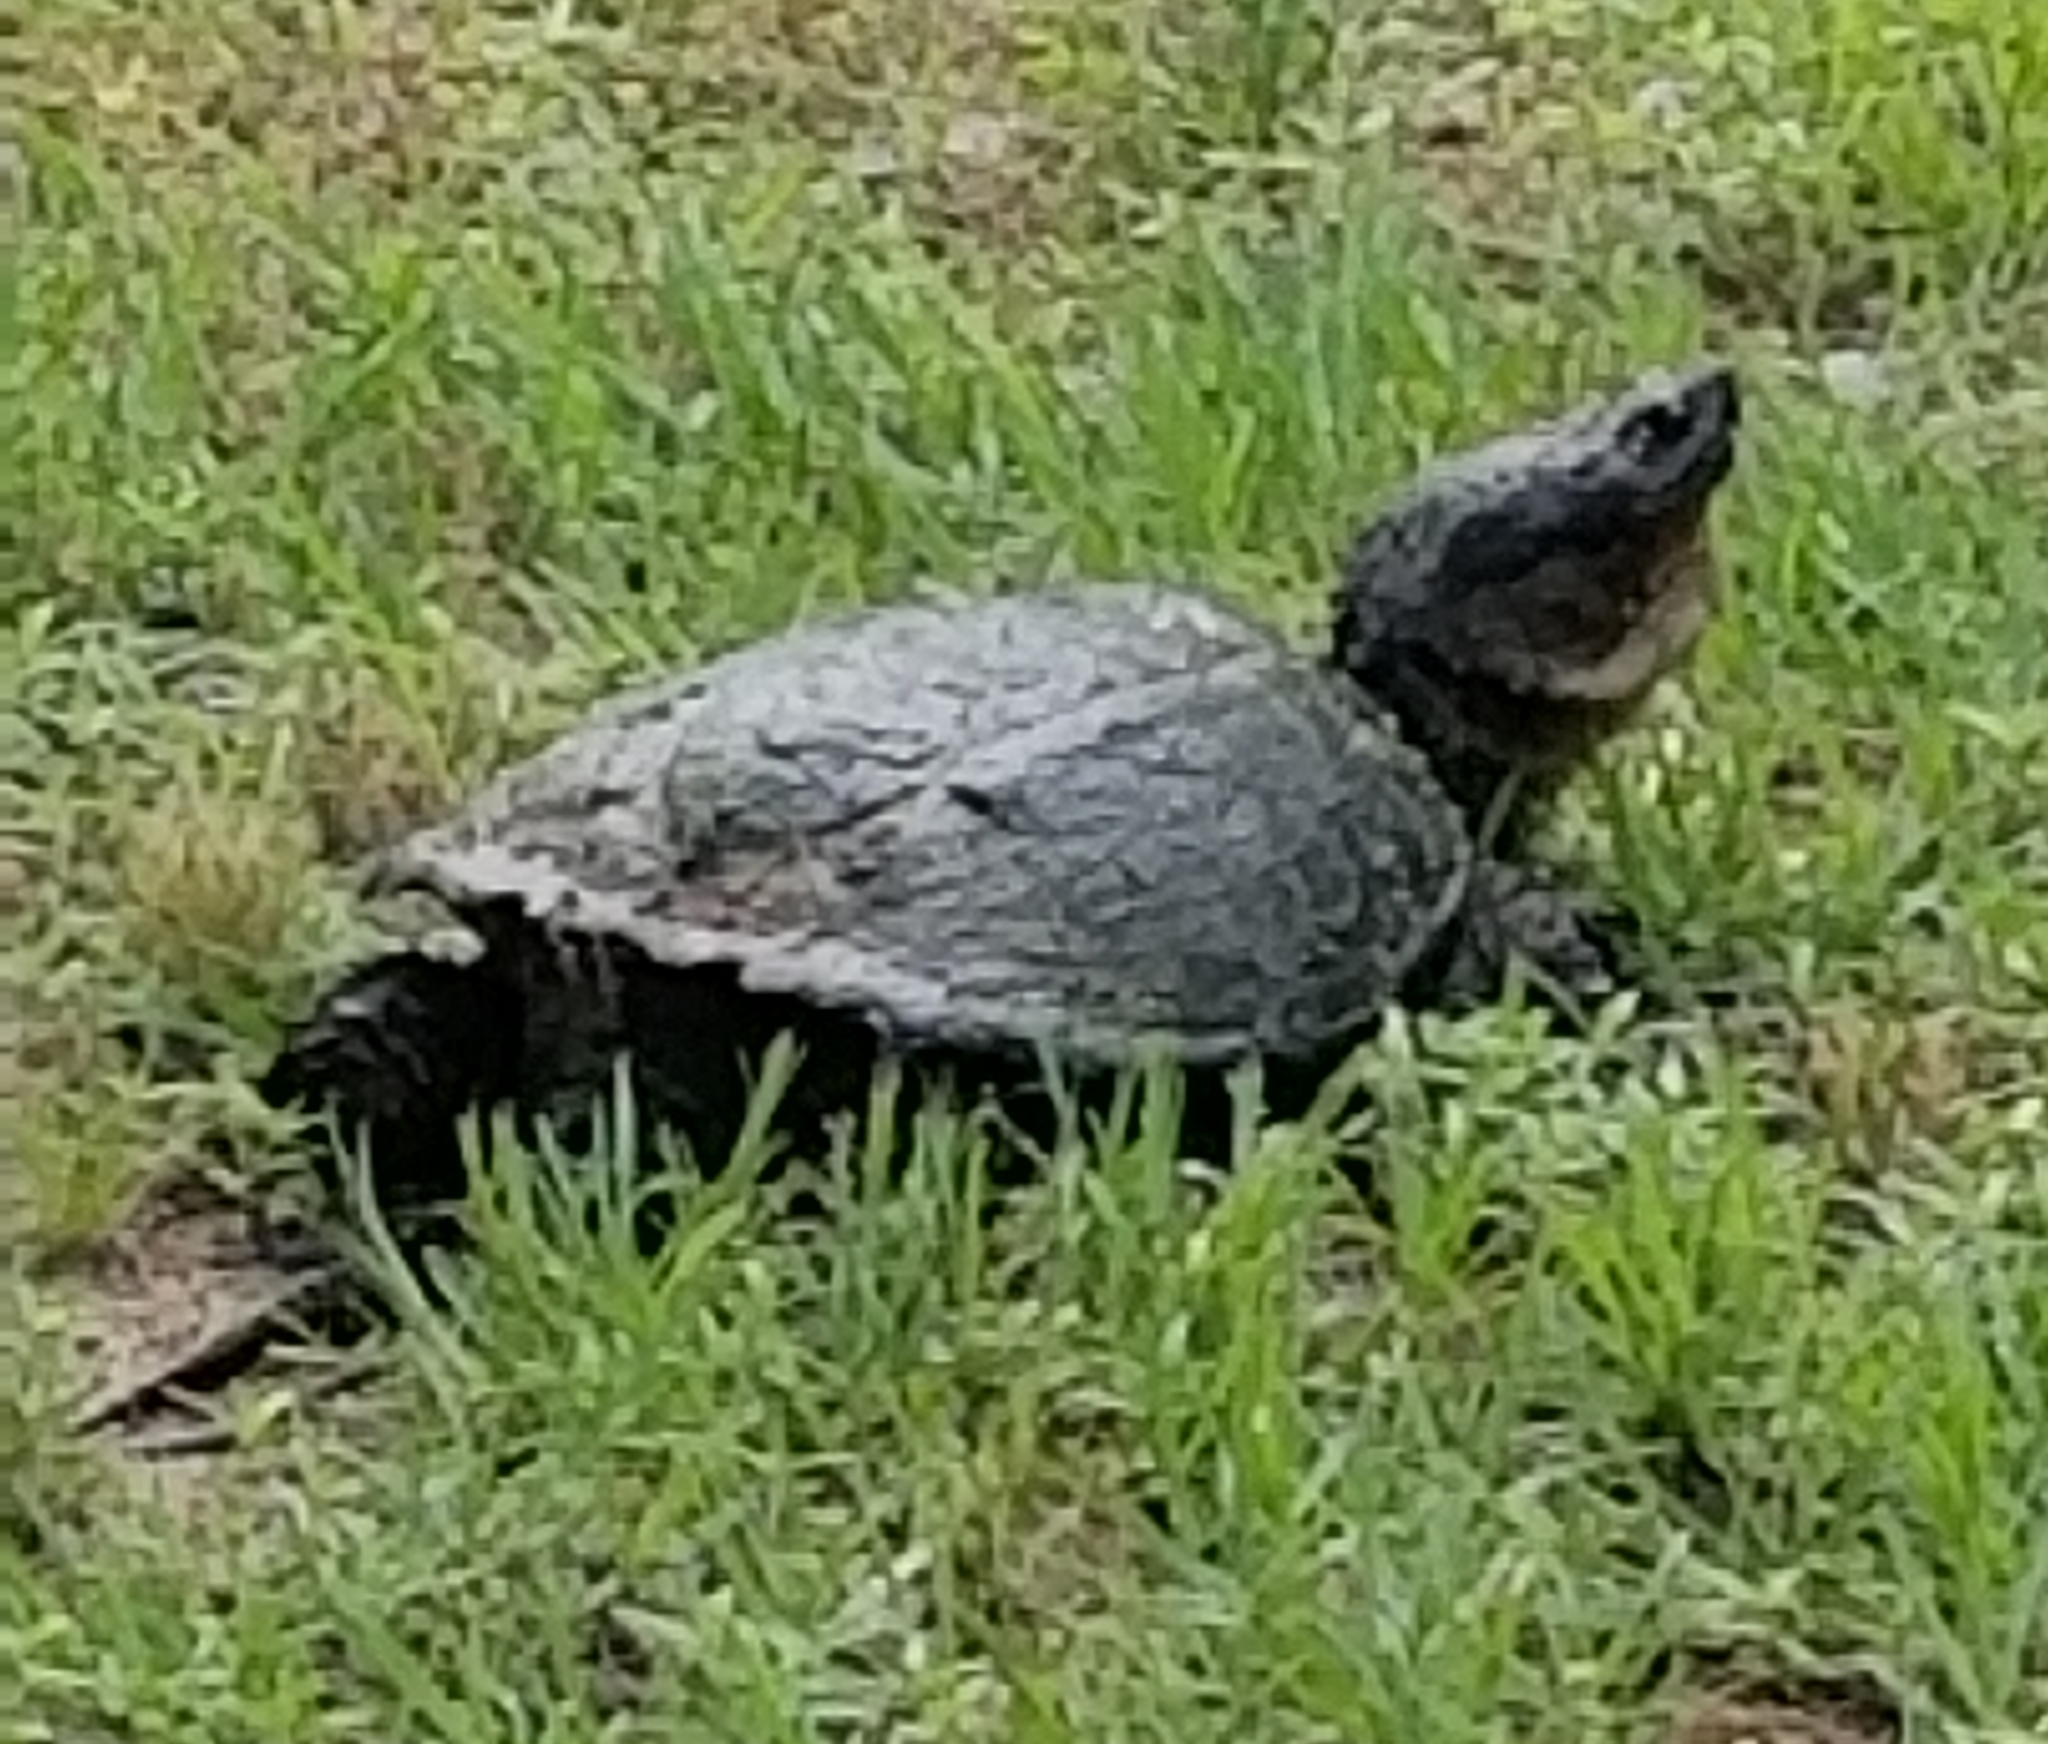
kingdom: Animalia
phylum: Chordata
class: Testudines
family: Chelydridae
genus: Chelydra
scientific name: Chelydra serpentina
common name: Common snapping turtle
